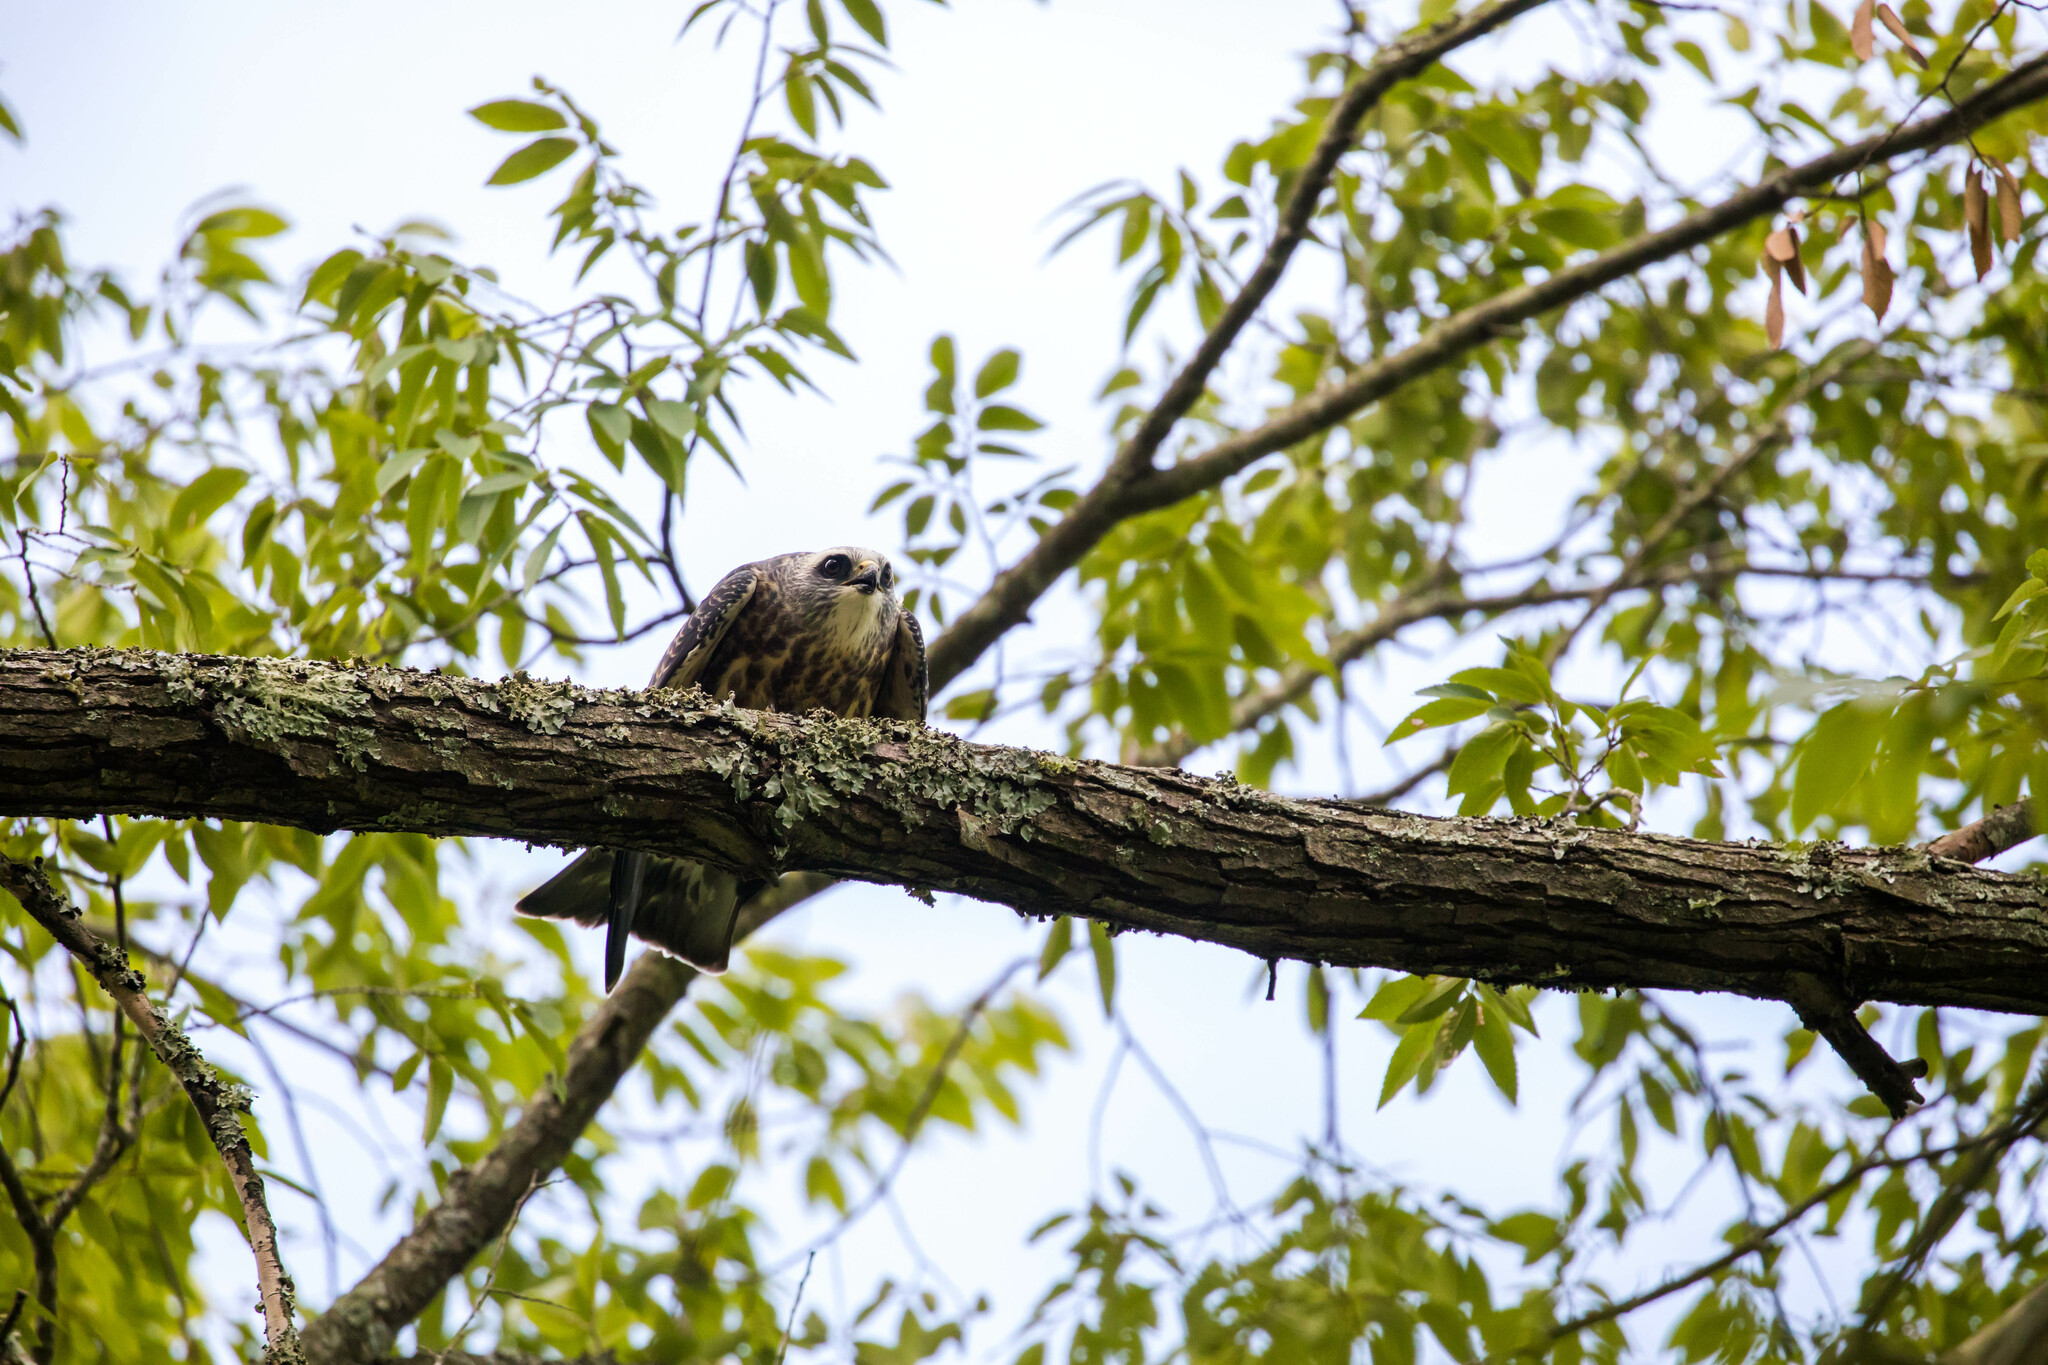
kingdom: Animalia
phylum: Chordata
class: Aves
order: Accipitriformes
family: Accipitridae
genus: Ictinia
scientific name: Ictinia mississippiensis
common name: Mississippi kite
